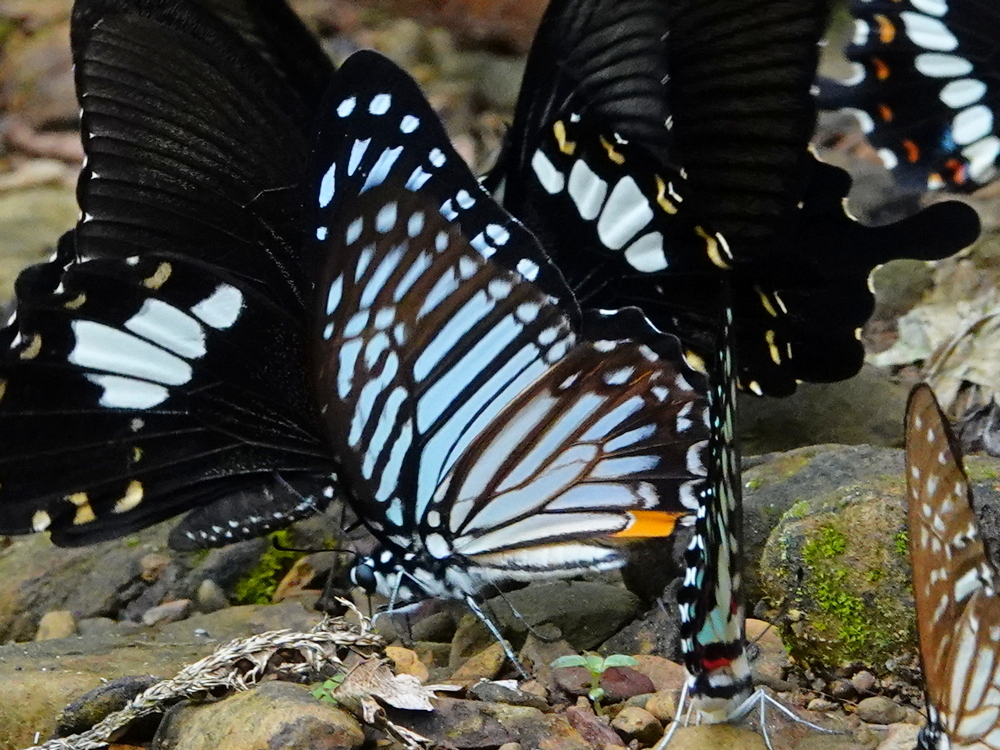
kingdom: Animalia
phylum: Arthropoda
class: Insecta
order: Lepidoptera
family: Papilionidae
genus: Graphium
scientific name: Graphium xenocles
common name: Great zebra
